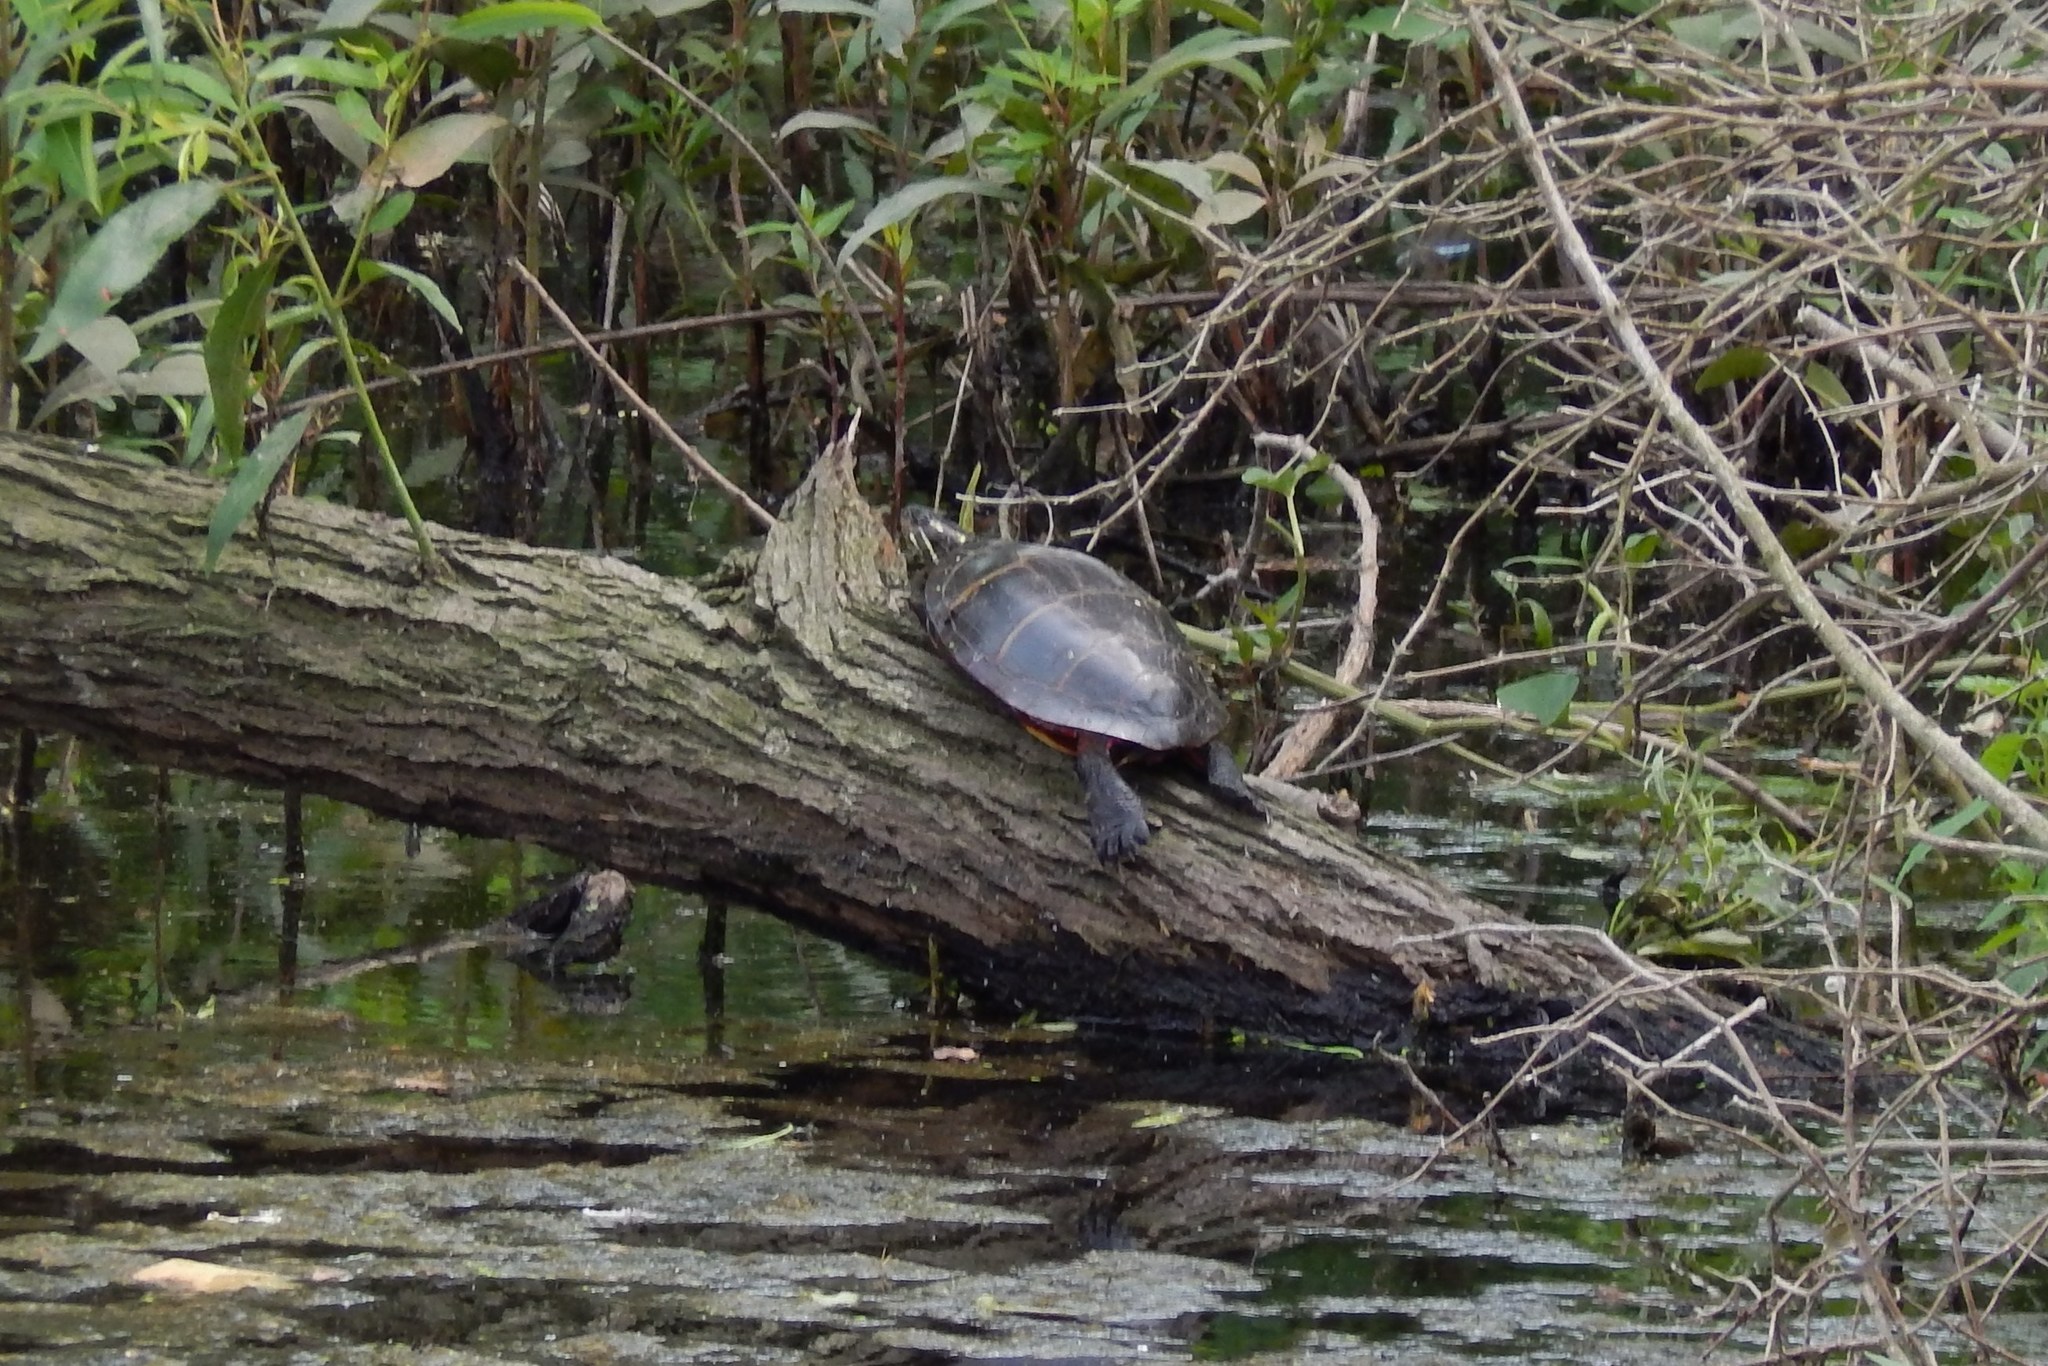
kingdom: Animalia
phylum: Chordata
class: Testudines
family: Emydidae
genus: Chrysemys
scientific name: Chrysemys picta
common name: Painted turtle
